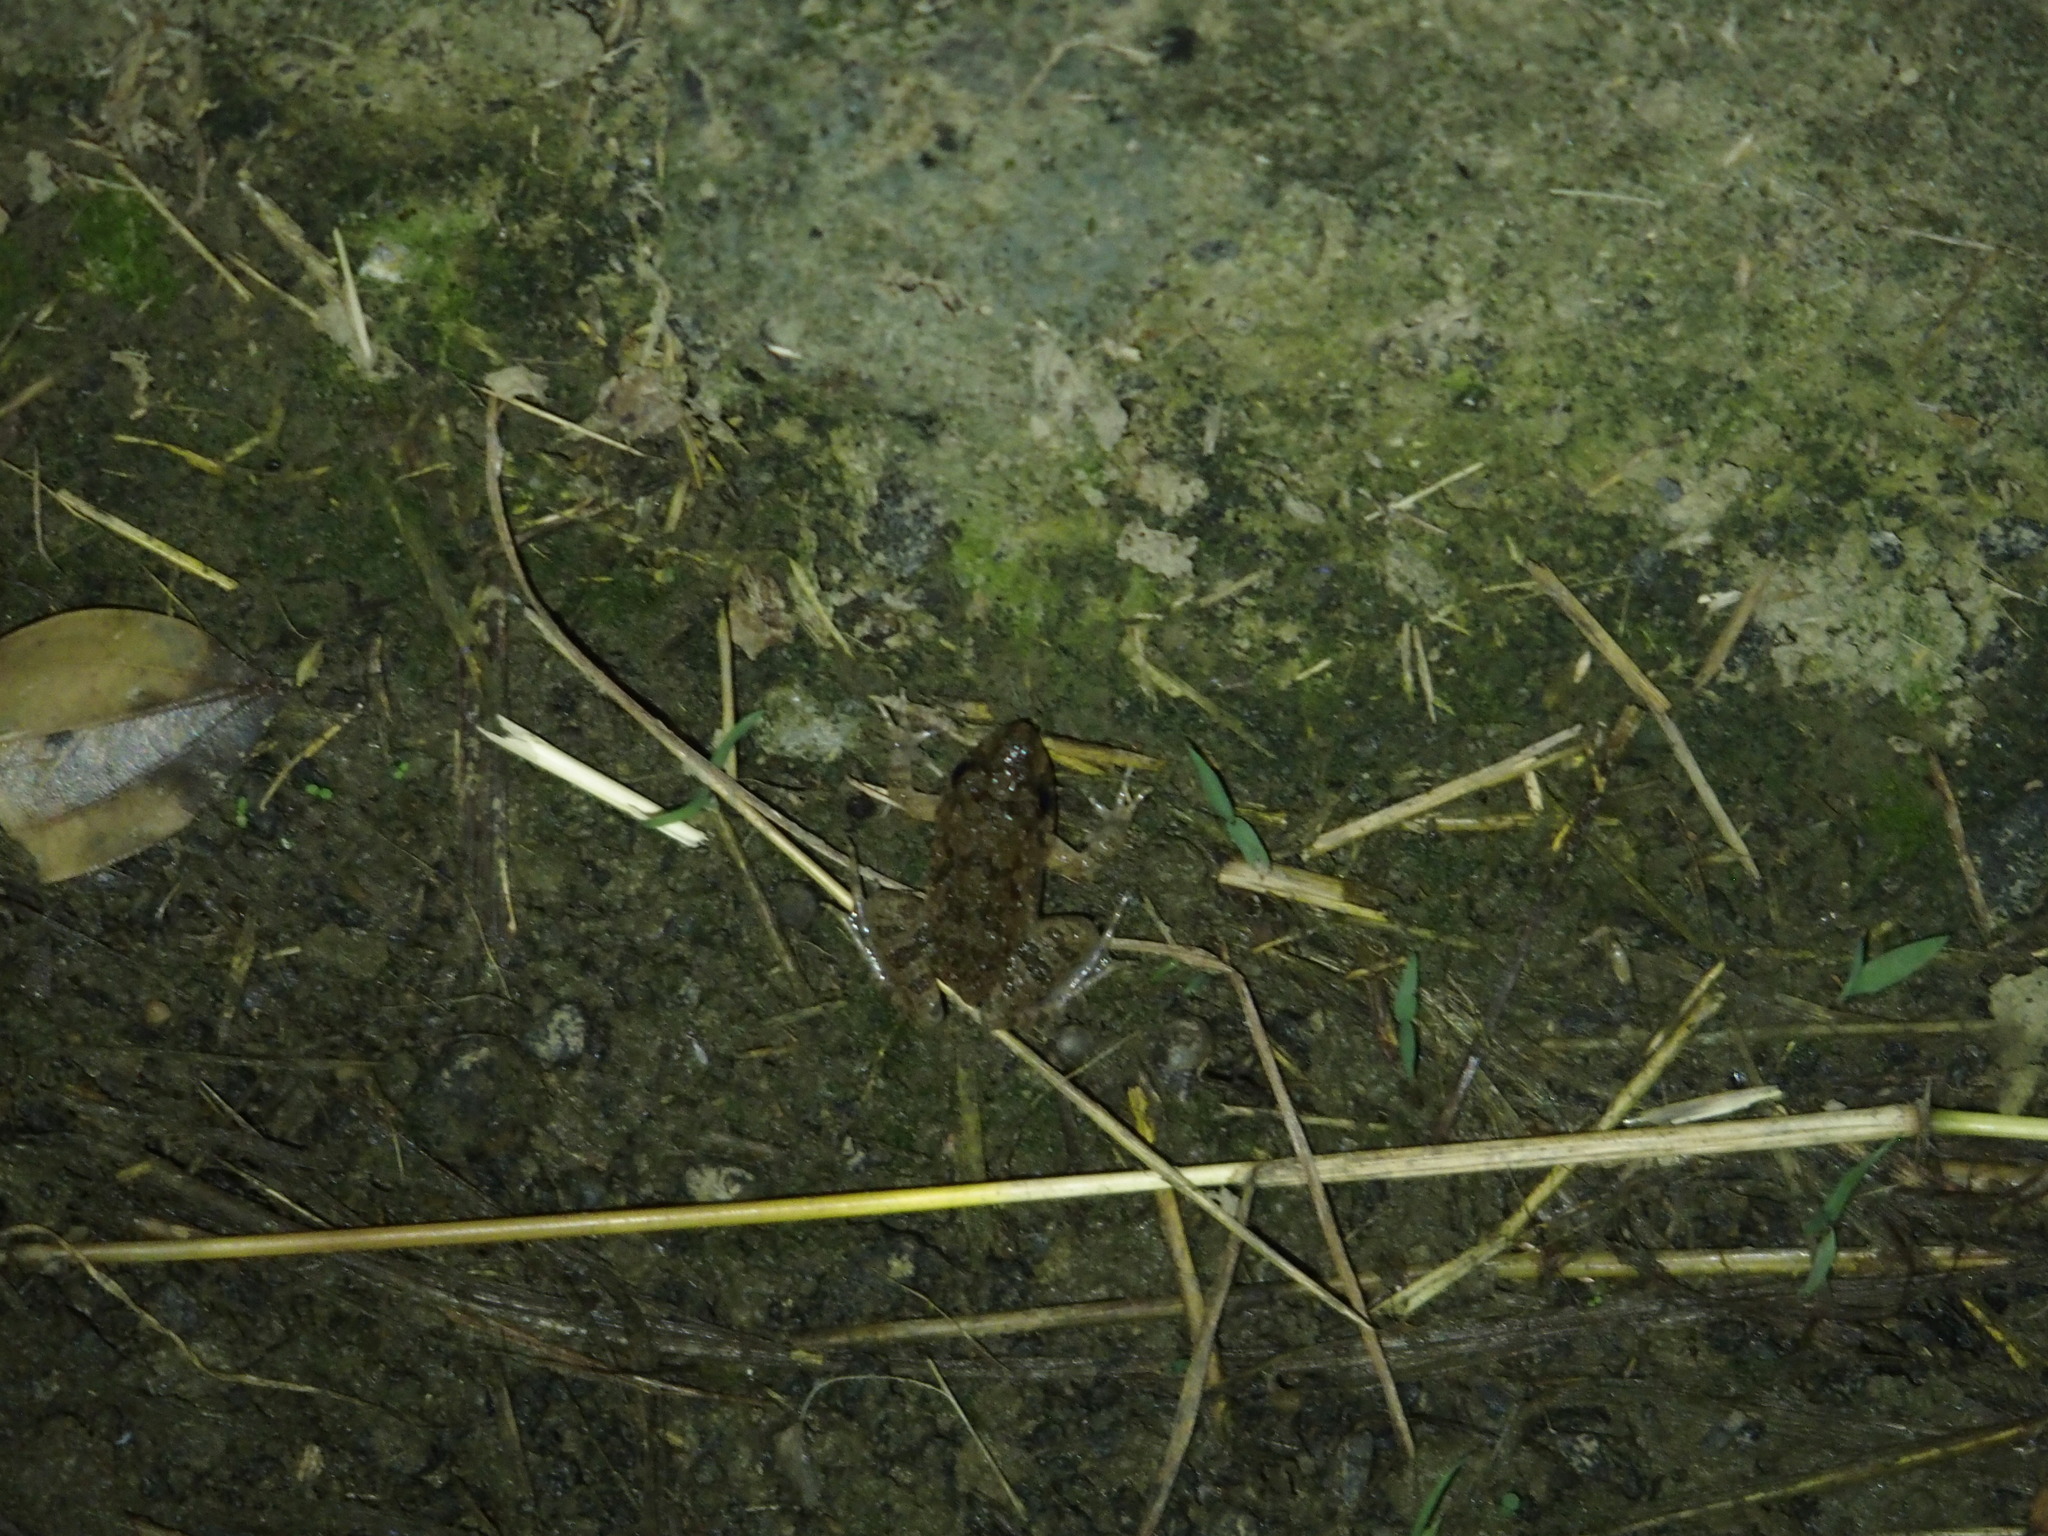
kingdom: Animalia
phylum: Chordata
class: Amphibia
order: Anura
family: Dicroglossidae
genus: Fejervarya
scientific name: Fejervarya limnocharis
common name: Asian grass frog/common pond frog/field frog/grass frog/indian rice frog
